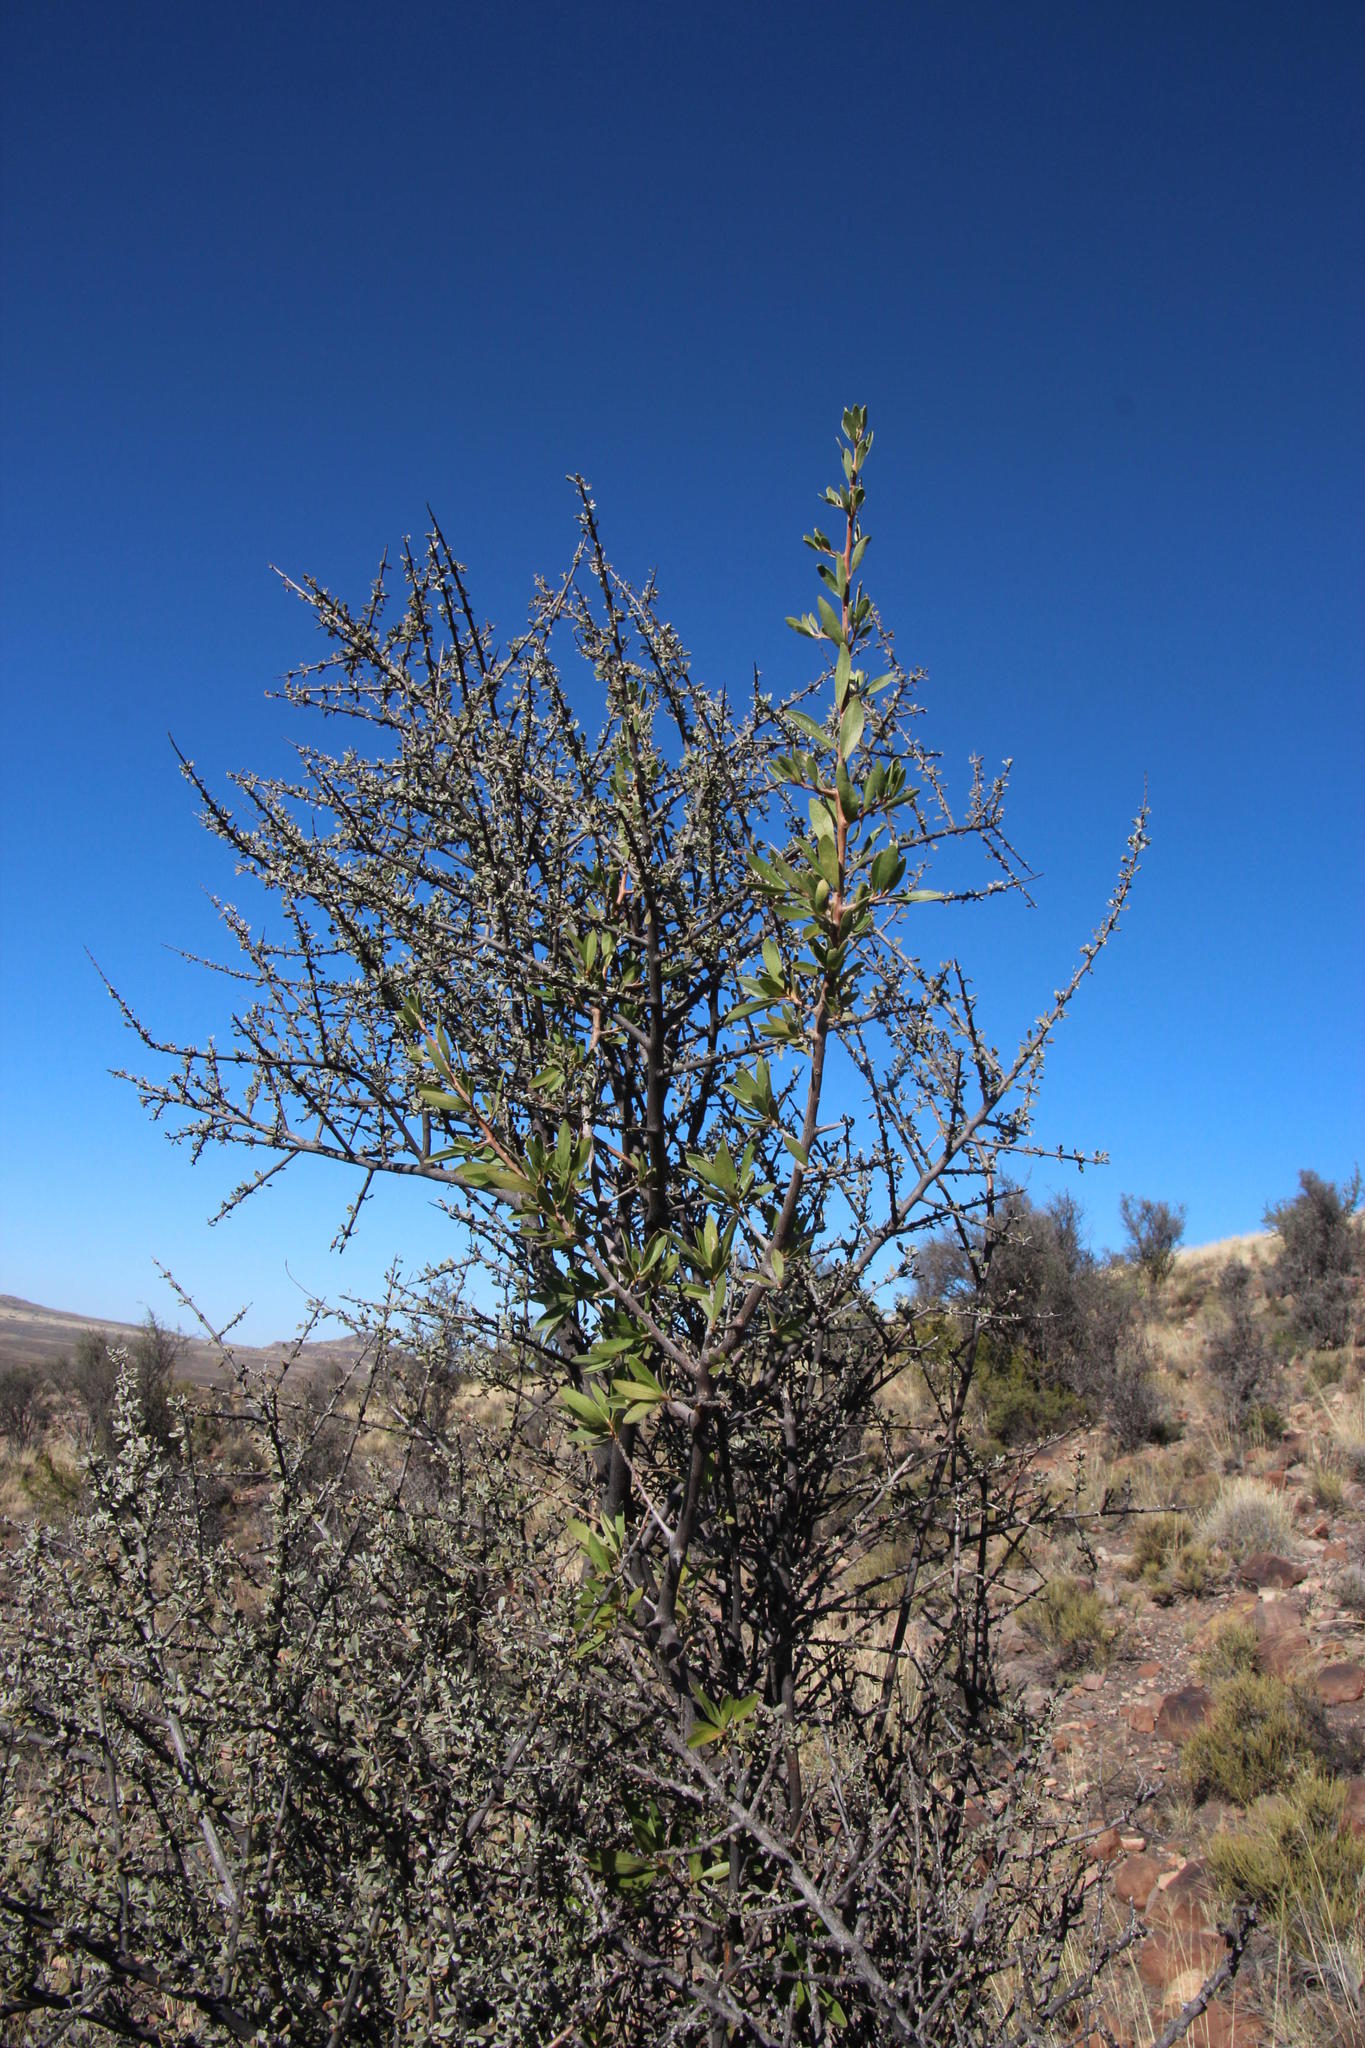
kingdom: Plantae
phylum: Tracheophyta
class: Magnoliopsida
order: Ericales
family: Ebenaceae
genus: Diospyros
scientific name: Diospyros lycioides
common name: Red star apple
